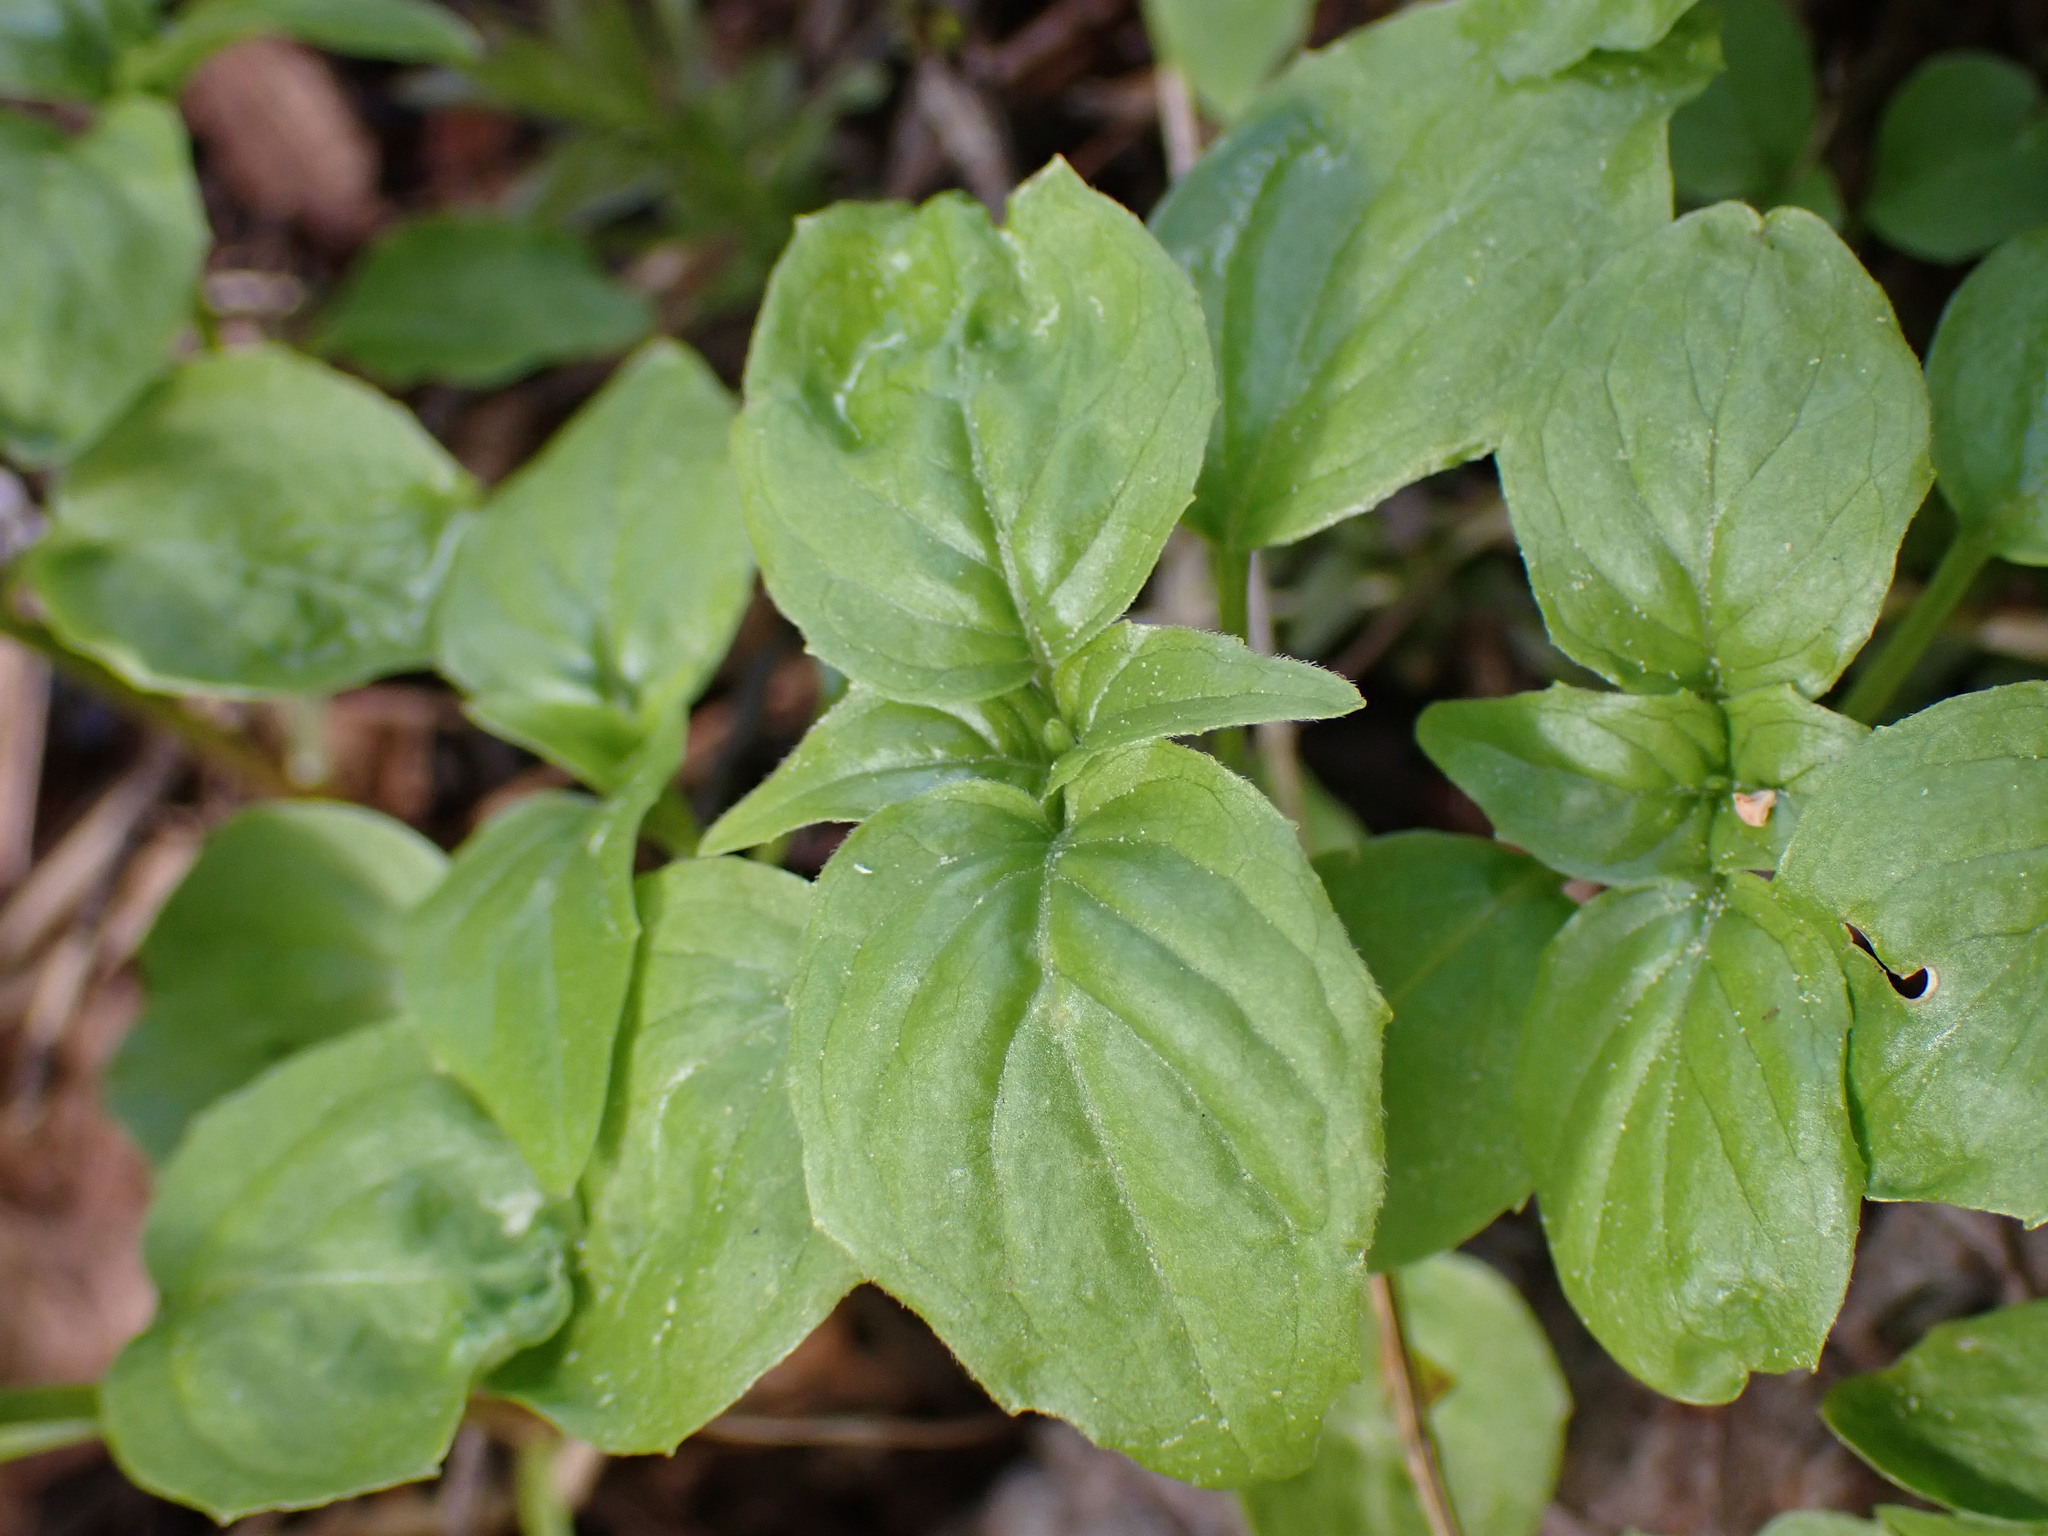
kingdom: Plantae
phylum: Tracheophyta
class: Magnoliopsida
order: Myrtales
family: Onagraceae
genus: Circaea
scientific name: Circaea alpina
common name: Alpine enchanter's-nightshade
